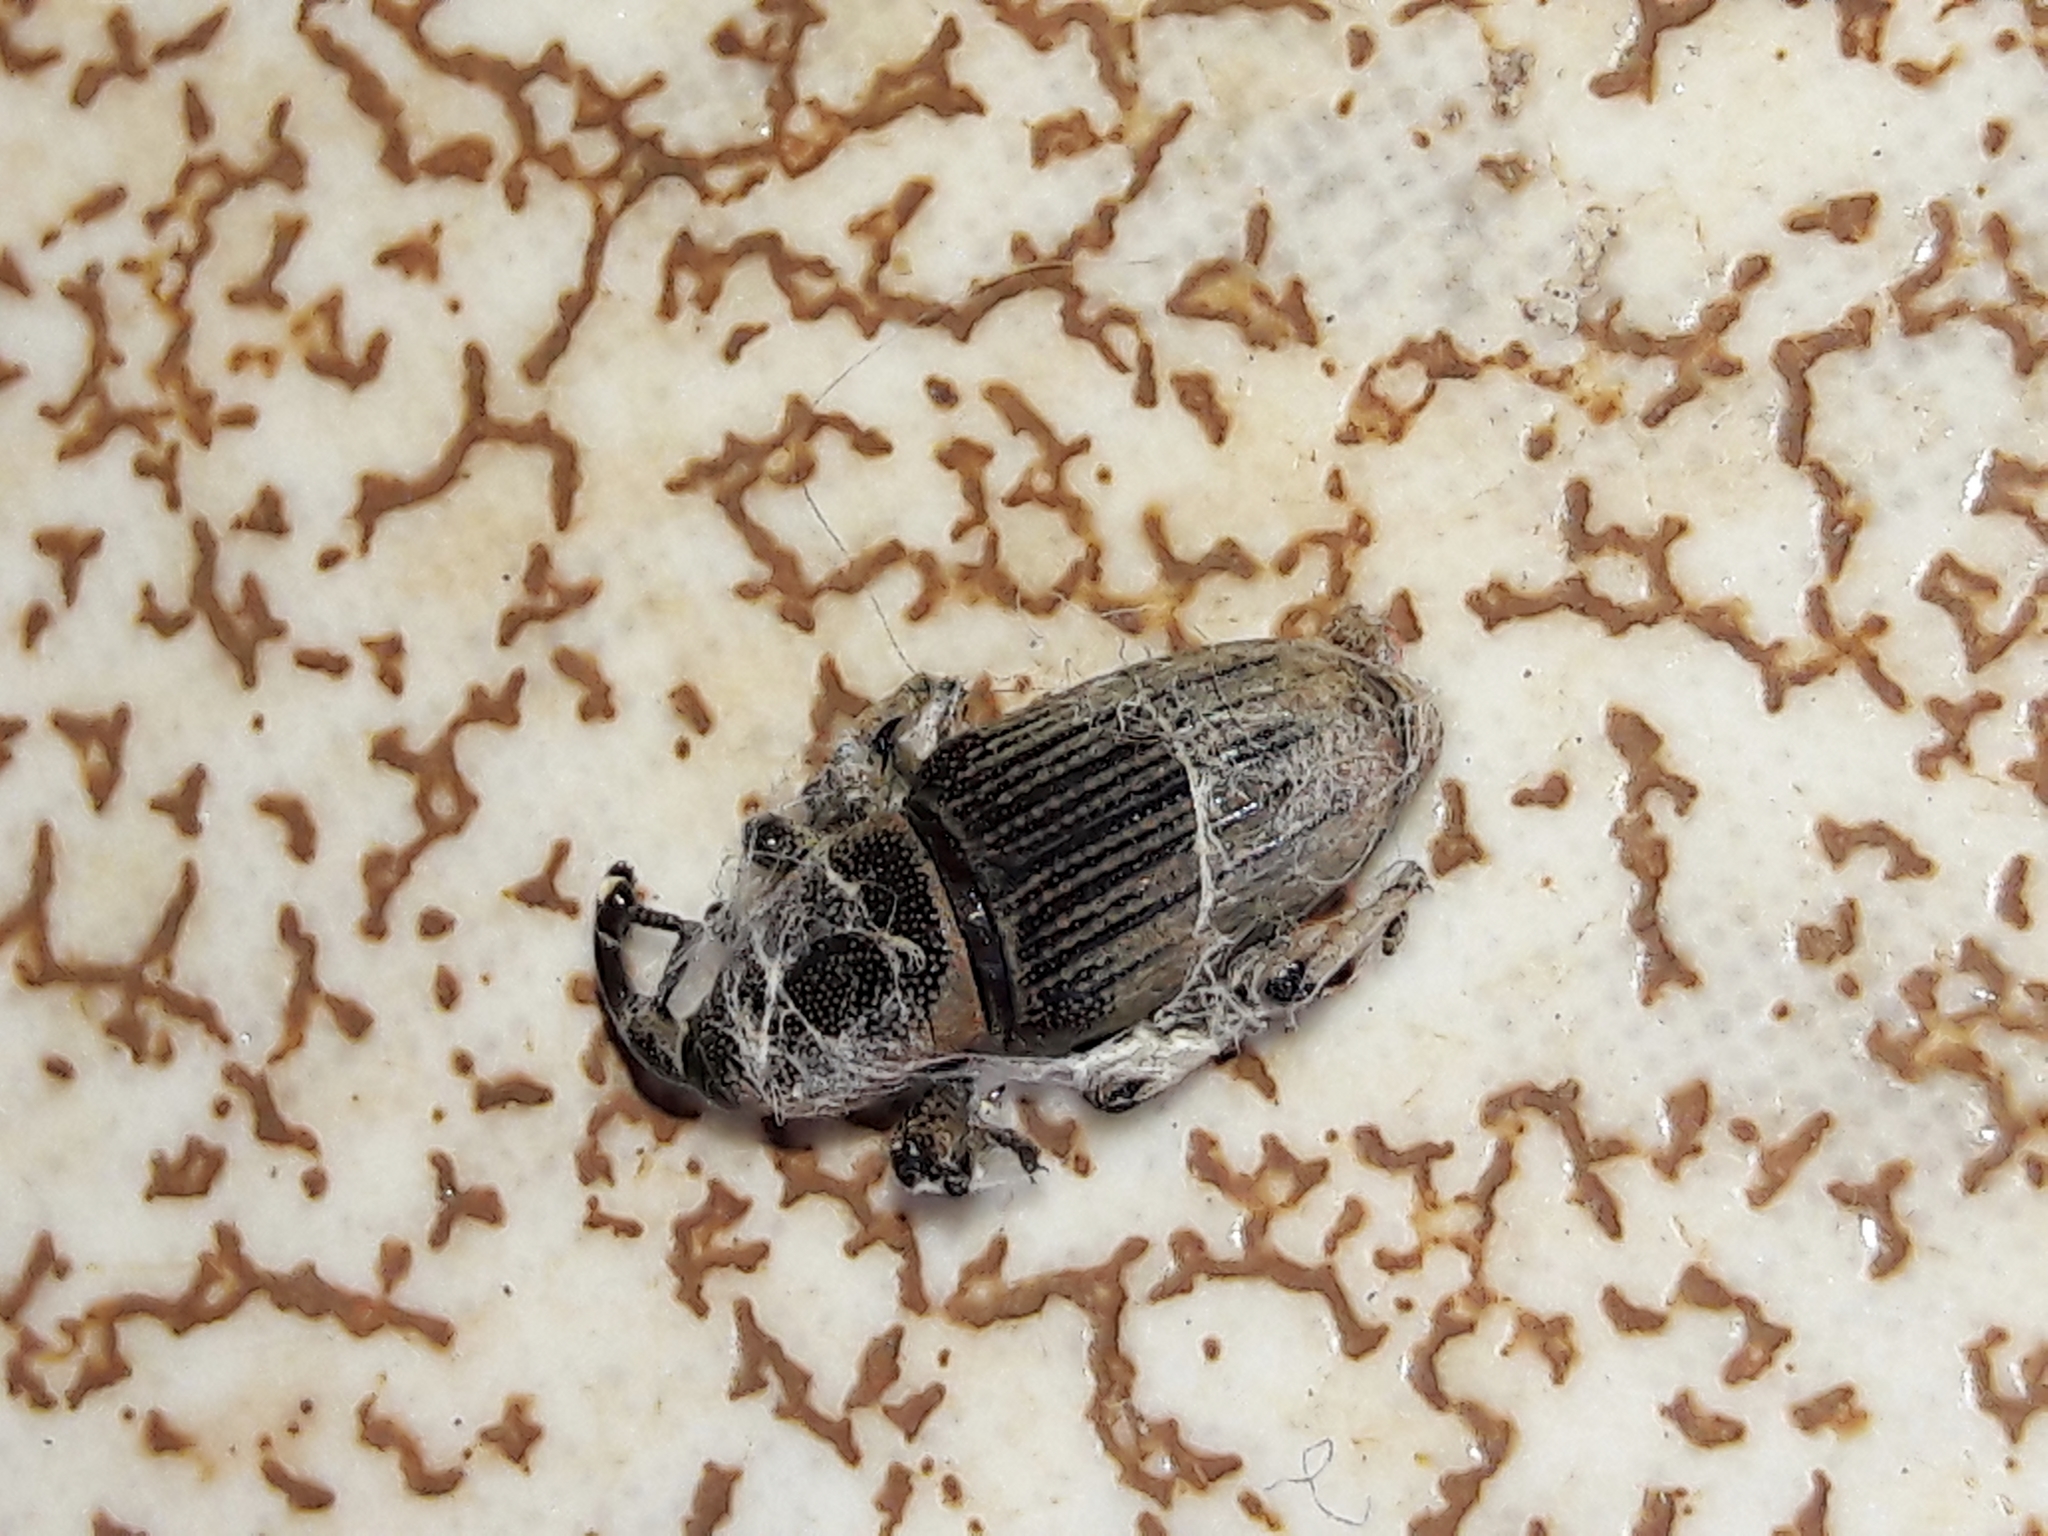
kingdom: Animalia
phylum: Arthropoda
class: Insecta
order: Coleoptera
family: Dryophthoridae
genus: Cosmopolites
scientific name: Cosmopolites sordidus
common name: Palm weevil
